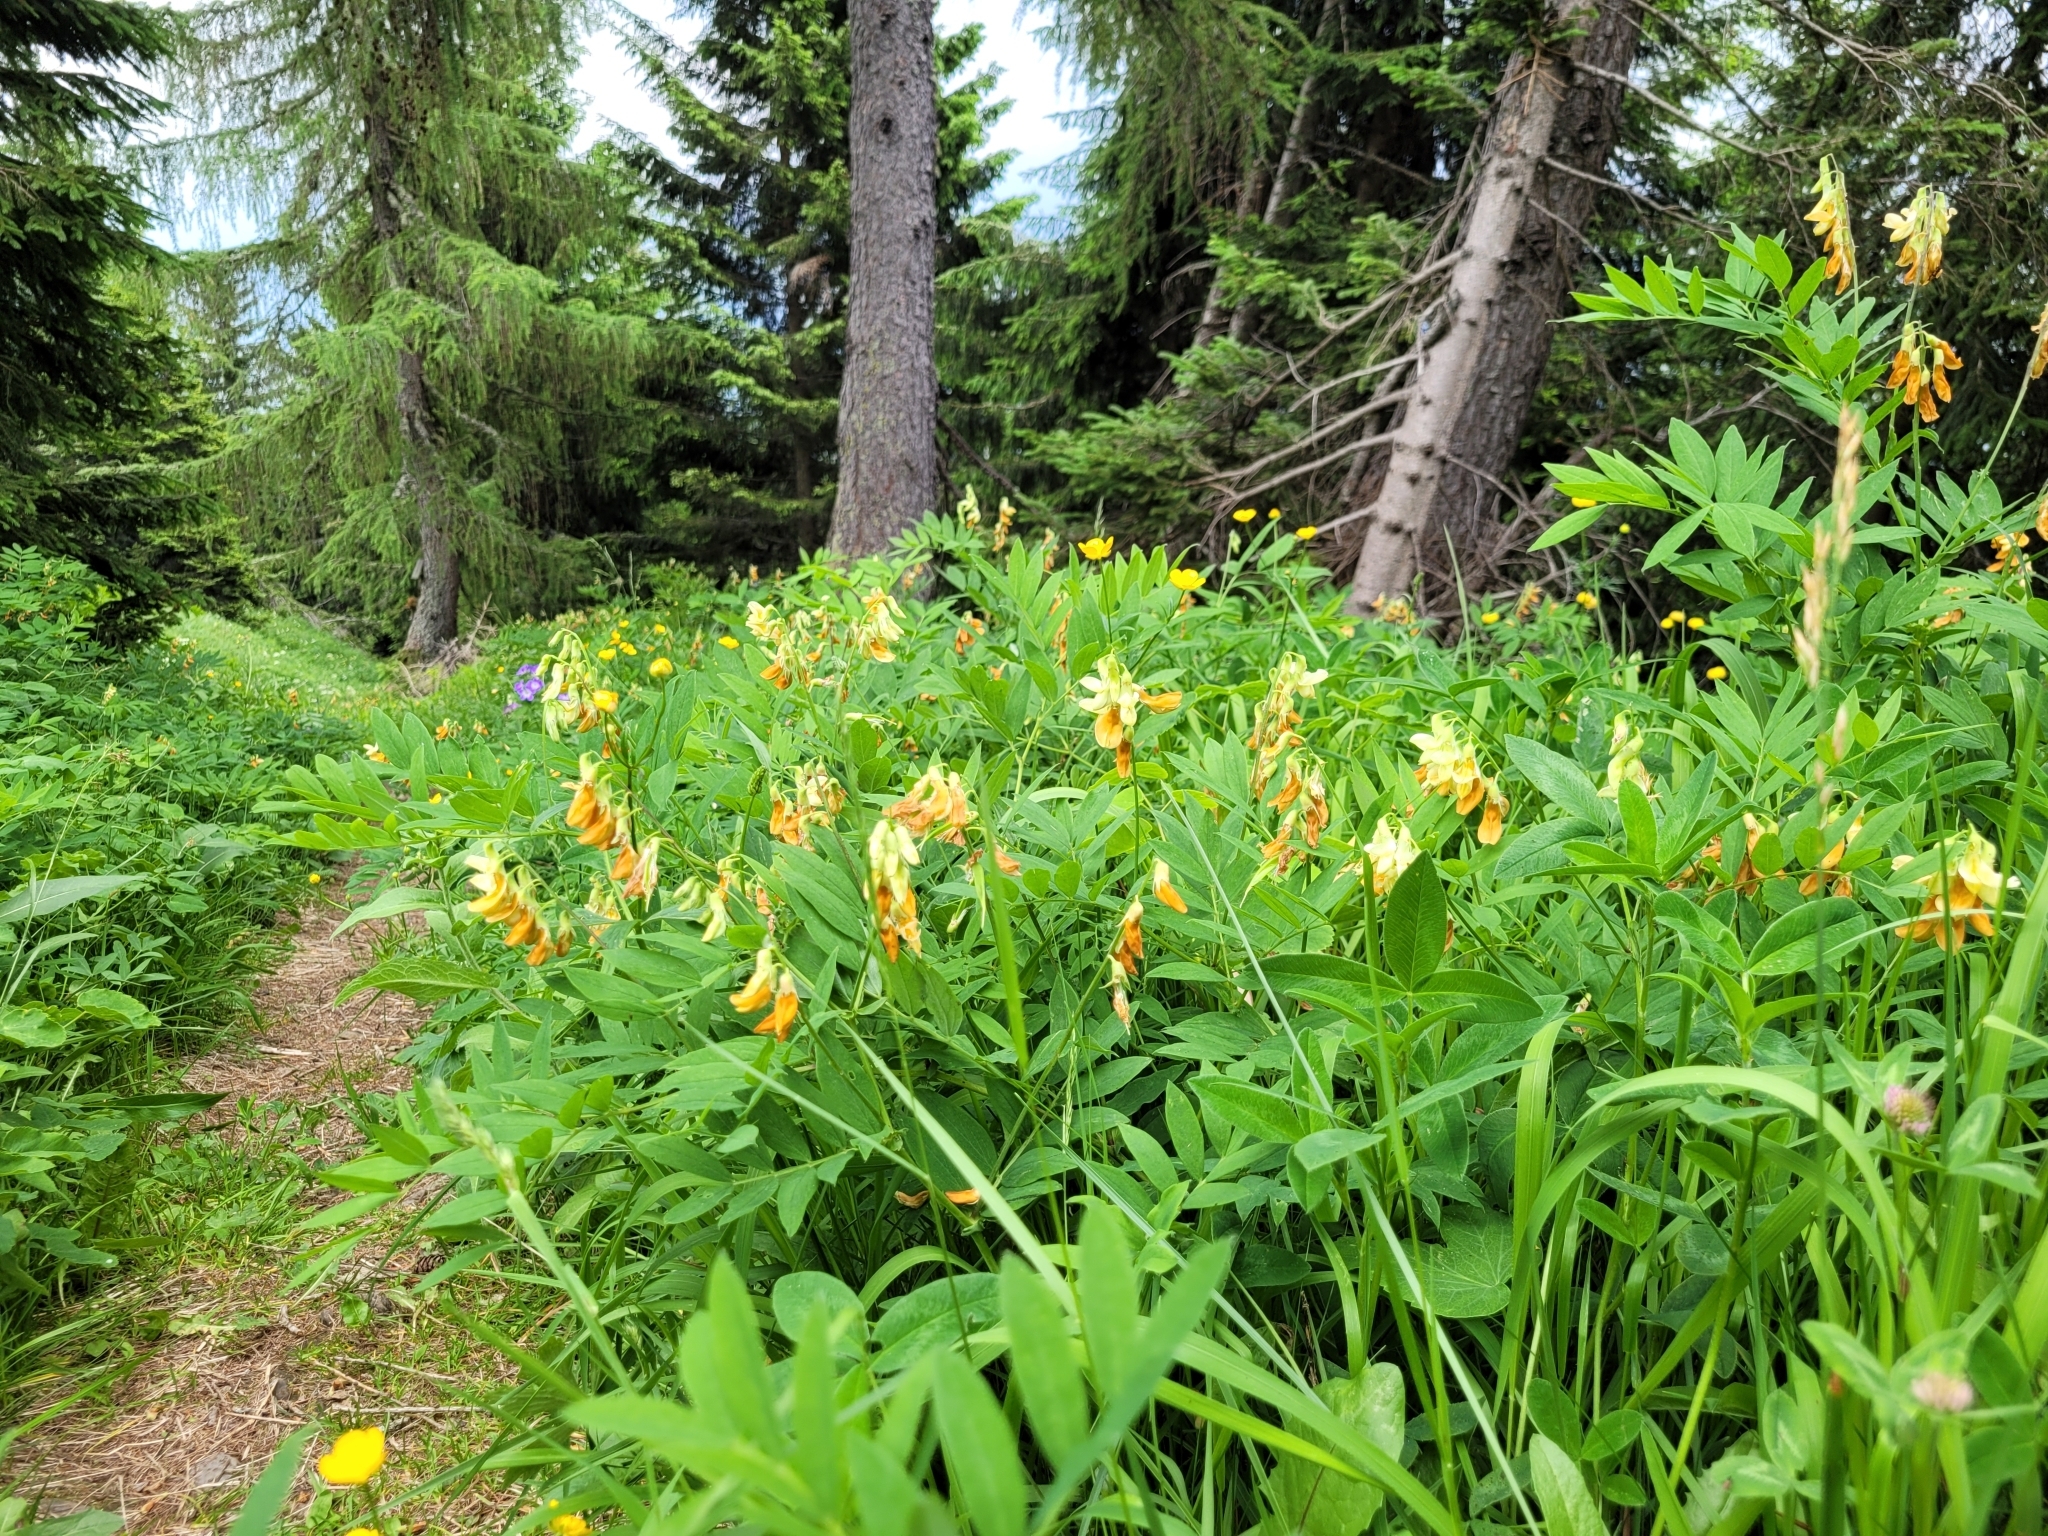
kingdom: Plantae
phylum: Tracheophyta
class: Magnoliopsida
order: Fabales
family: Fabaceae
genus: Lathyrus
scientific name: Lathyrus laevigatus
